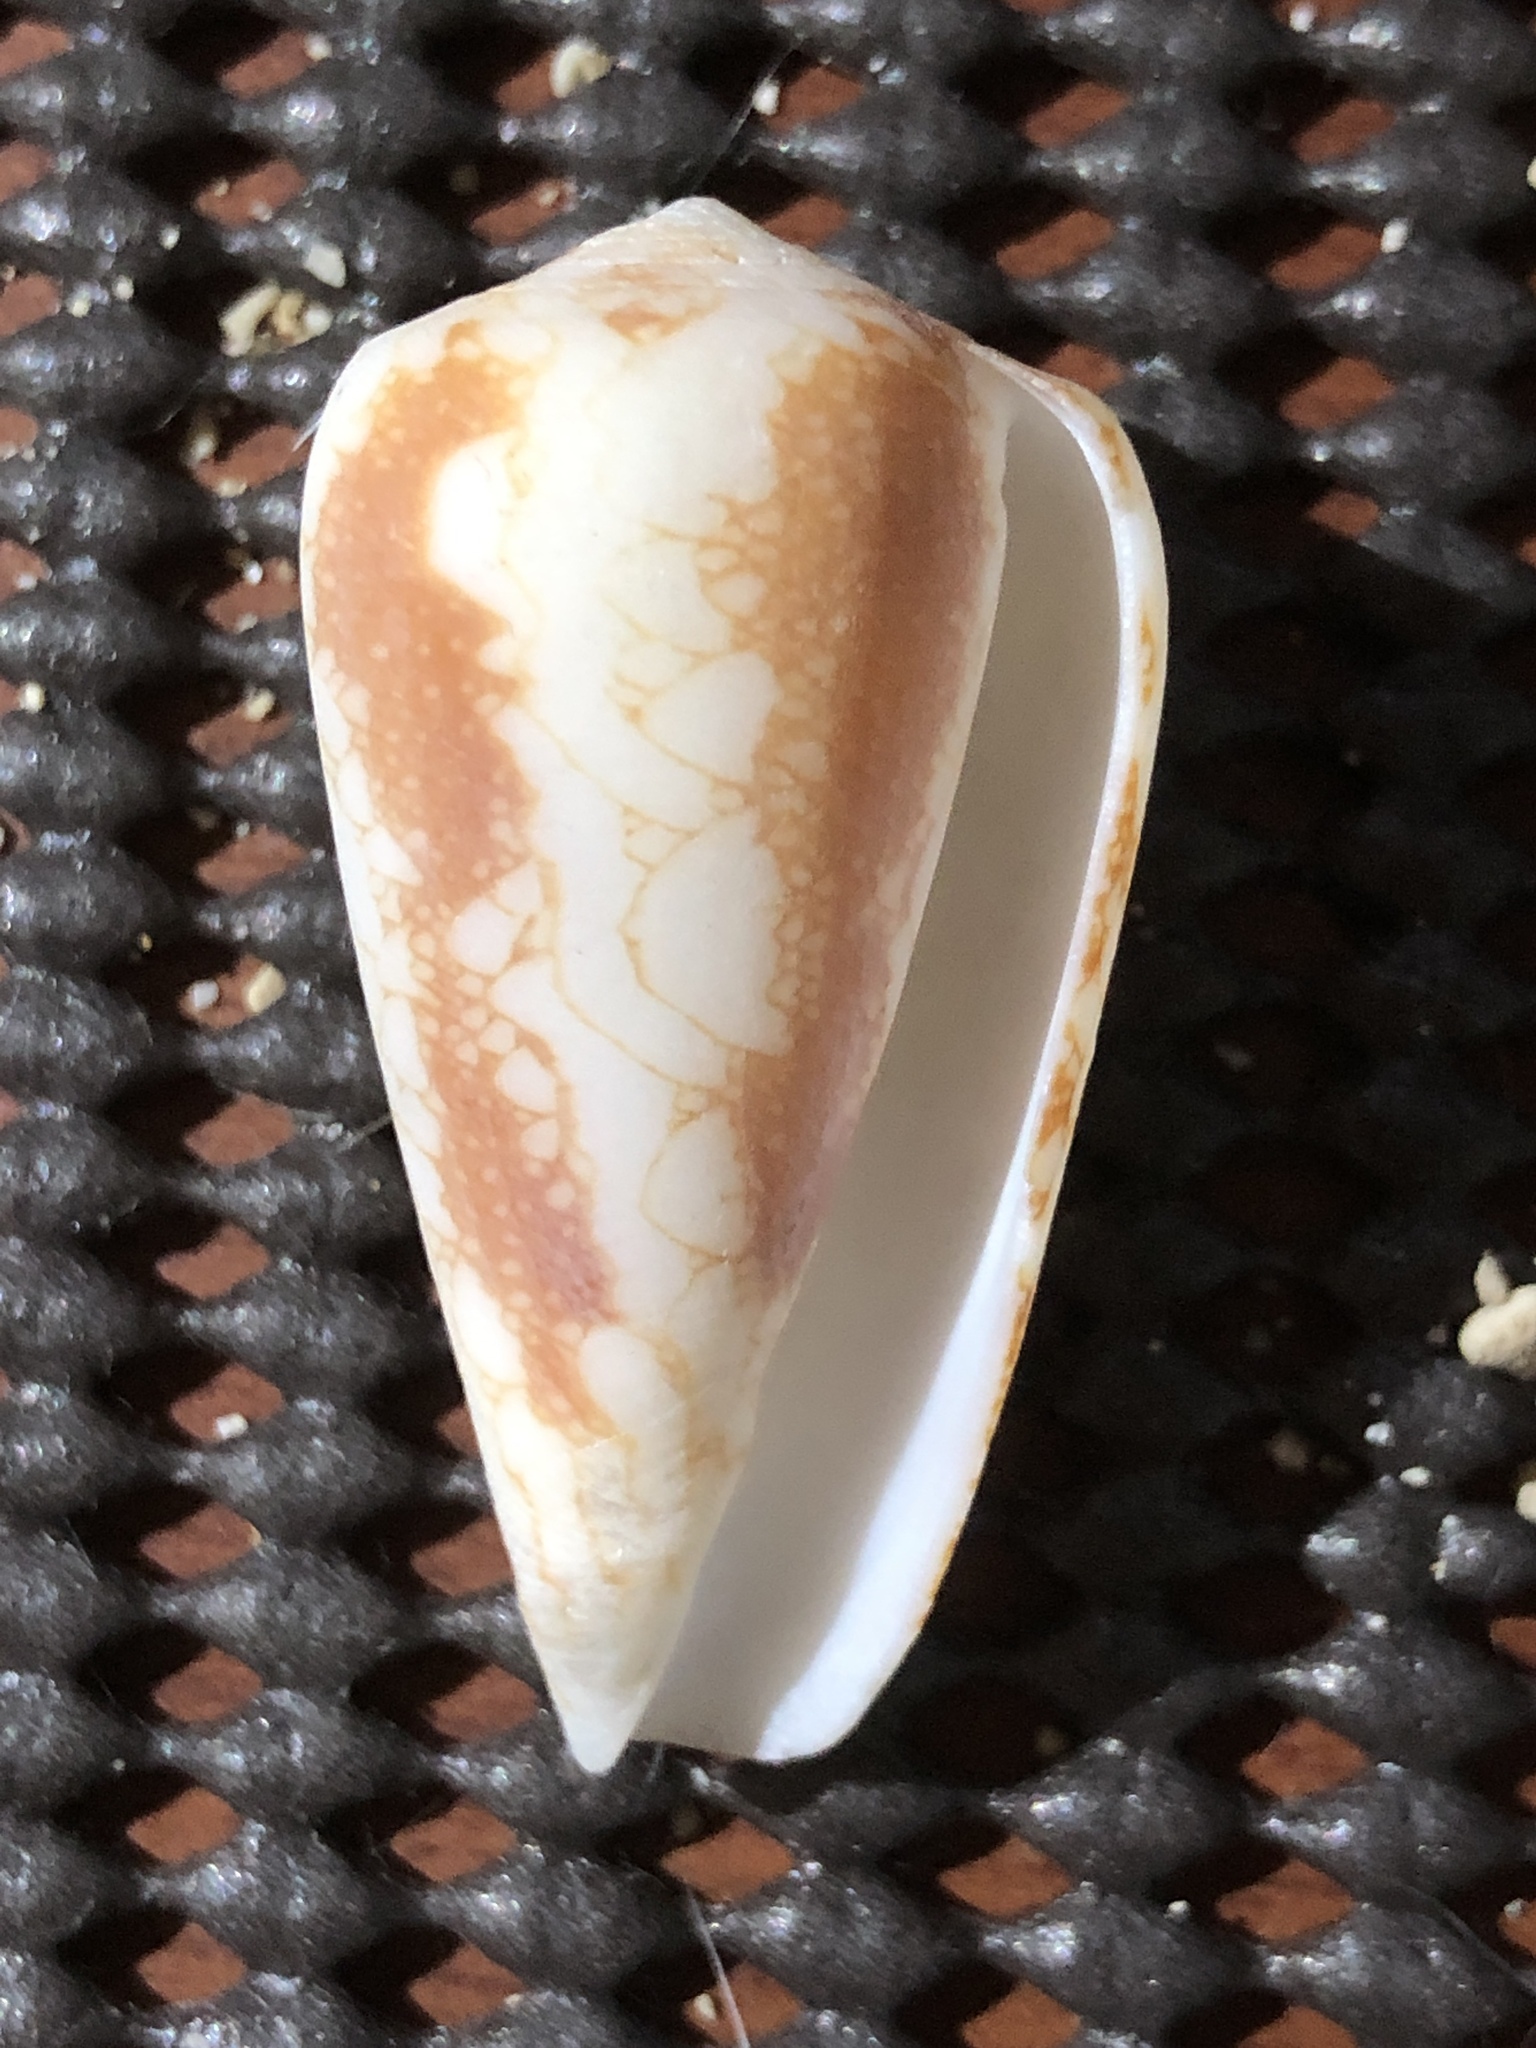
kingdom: Animalia
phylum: Mollusca
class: Gastropoda
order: Neogastropoda
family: Conidae
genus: Conus
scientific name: Conus omaria
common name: Omaria cone
